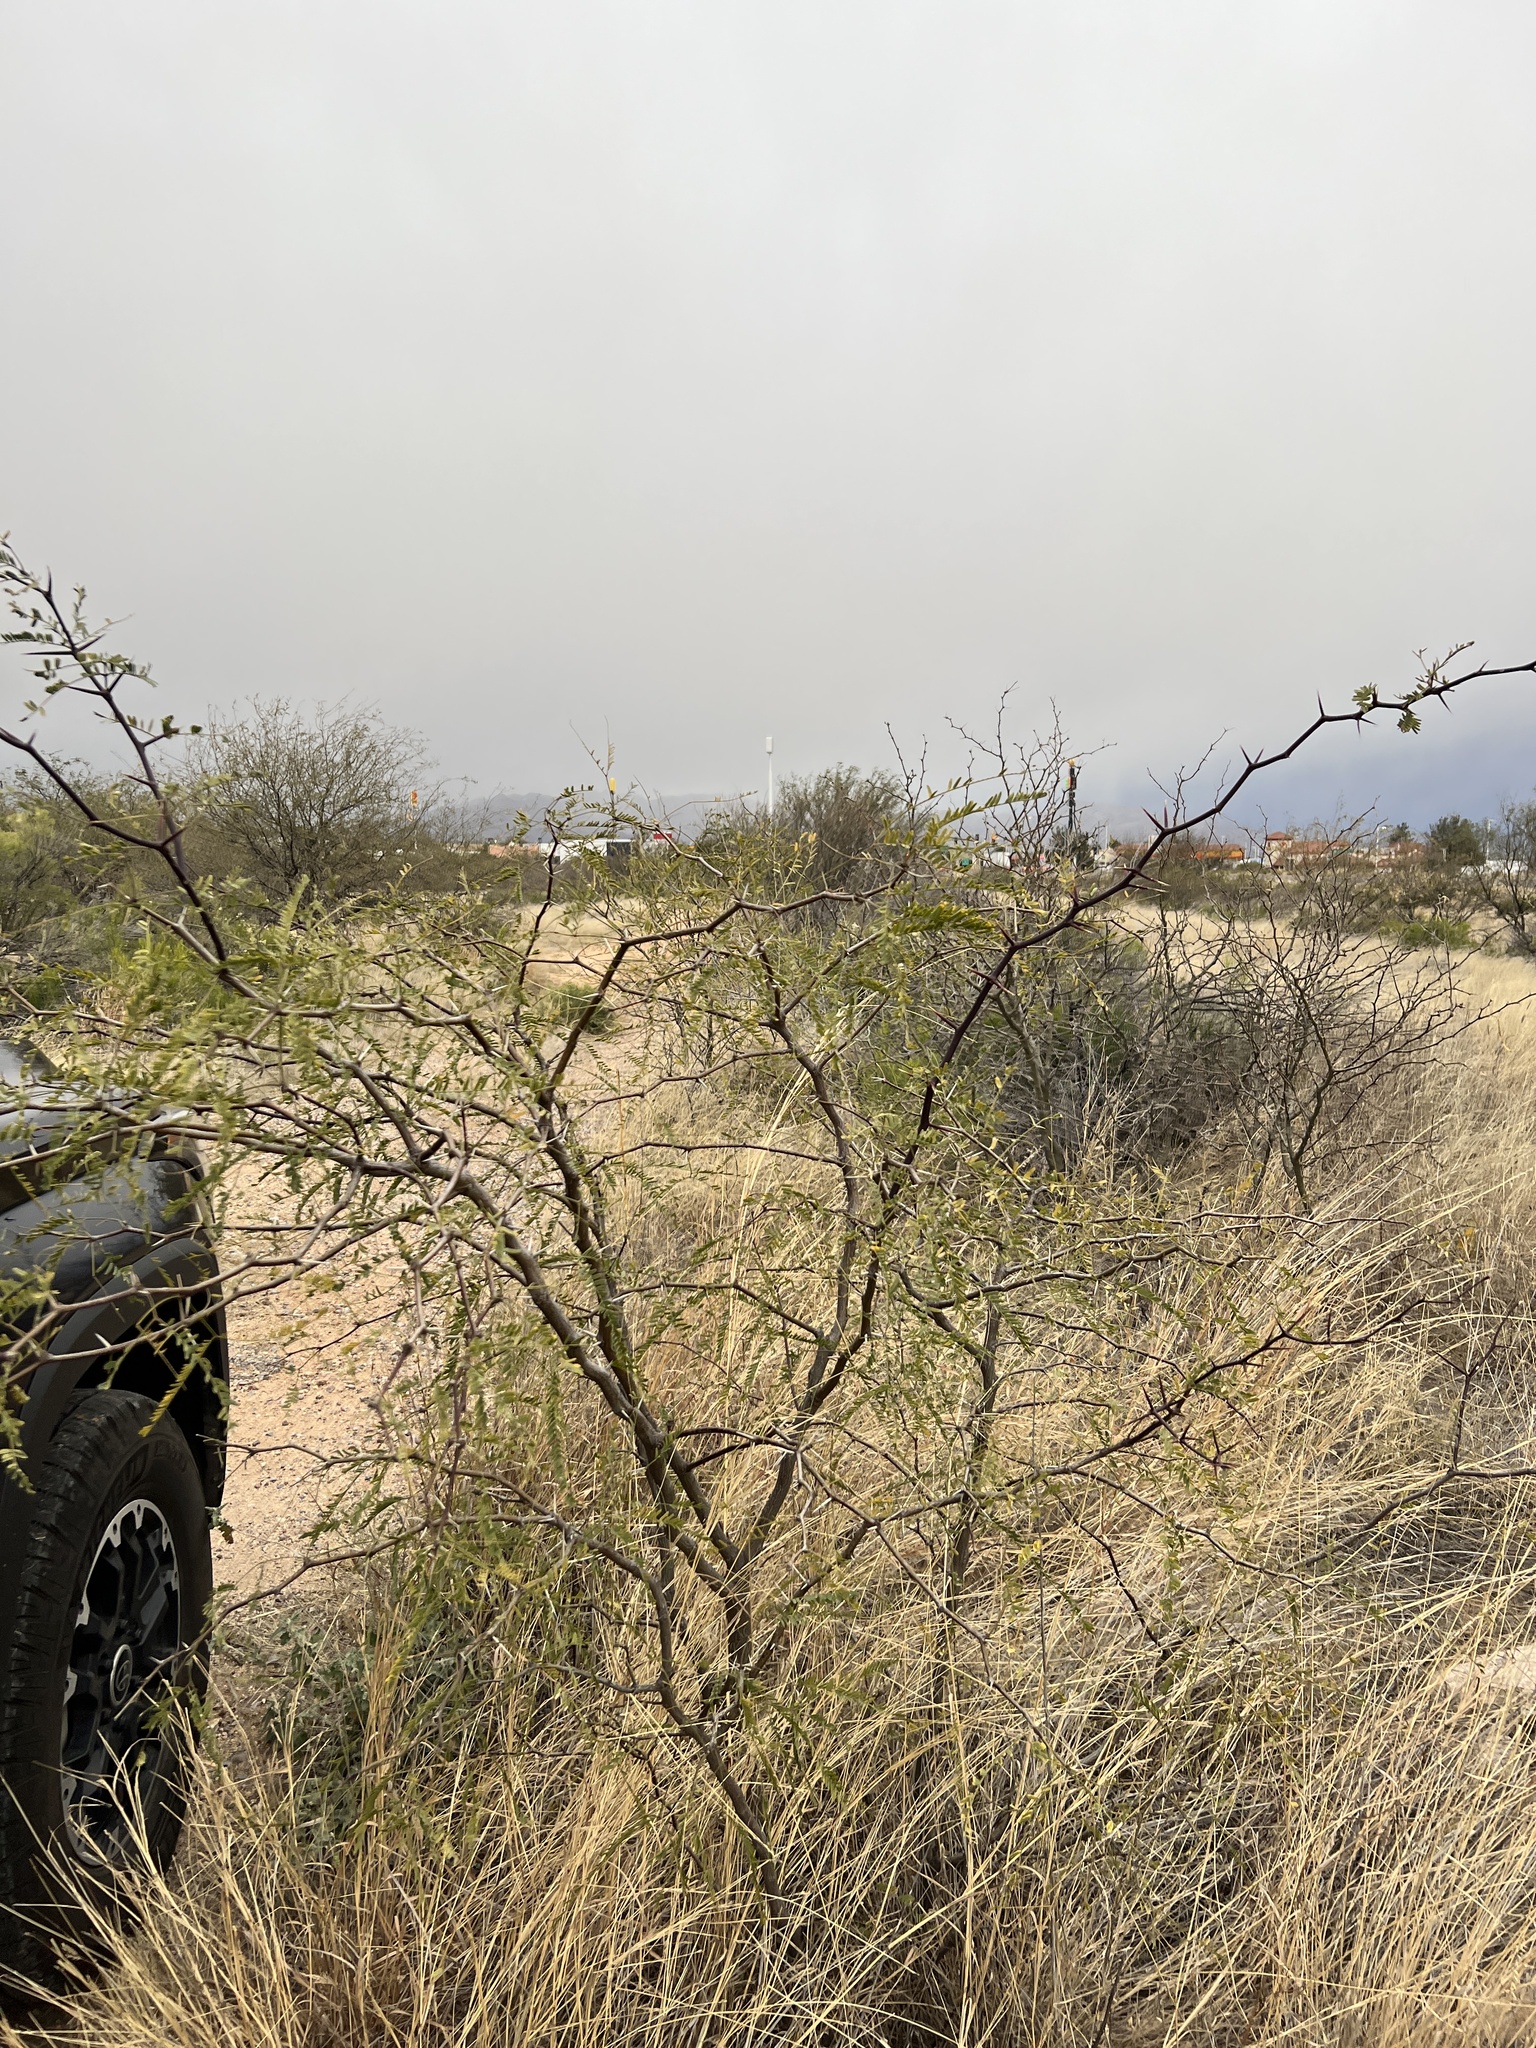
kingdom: Plantae
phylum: Tracheophyta
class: Magnoliopsida
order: Fabales
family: Fabaceae
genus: Prosopis
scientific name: Prosopis velutina
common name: Velvet mesquite
